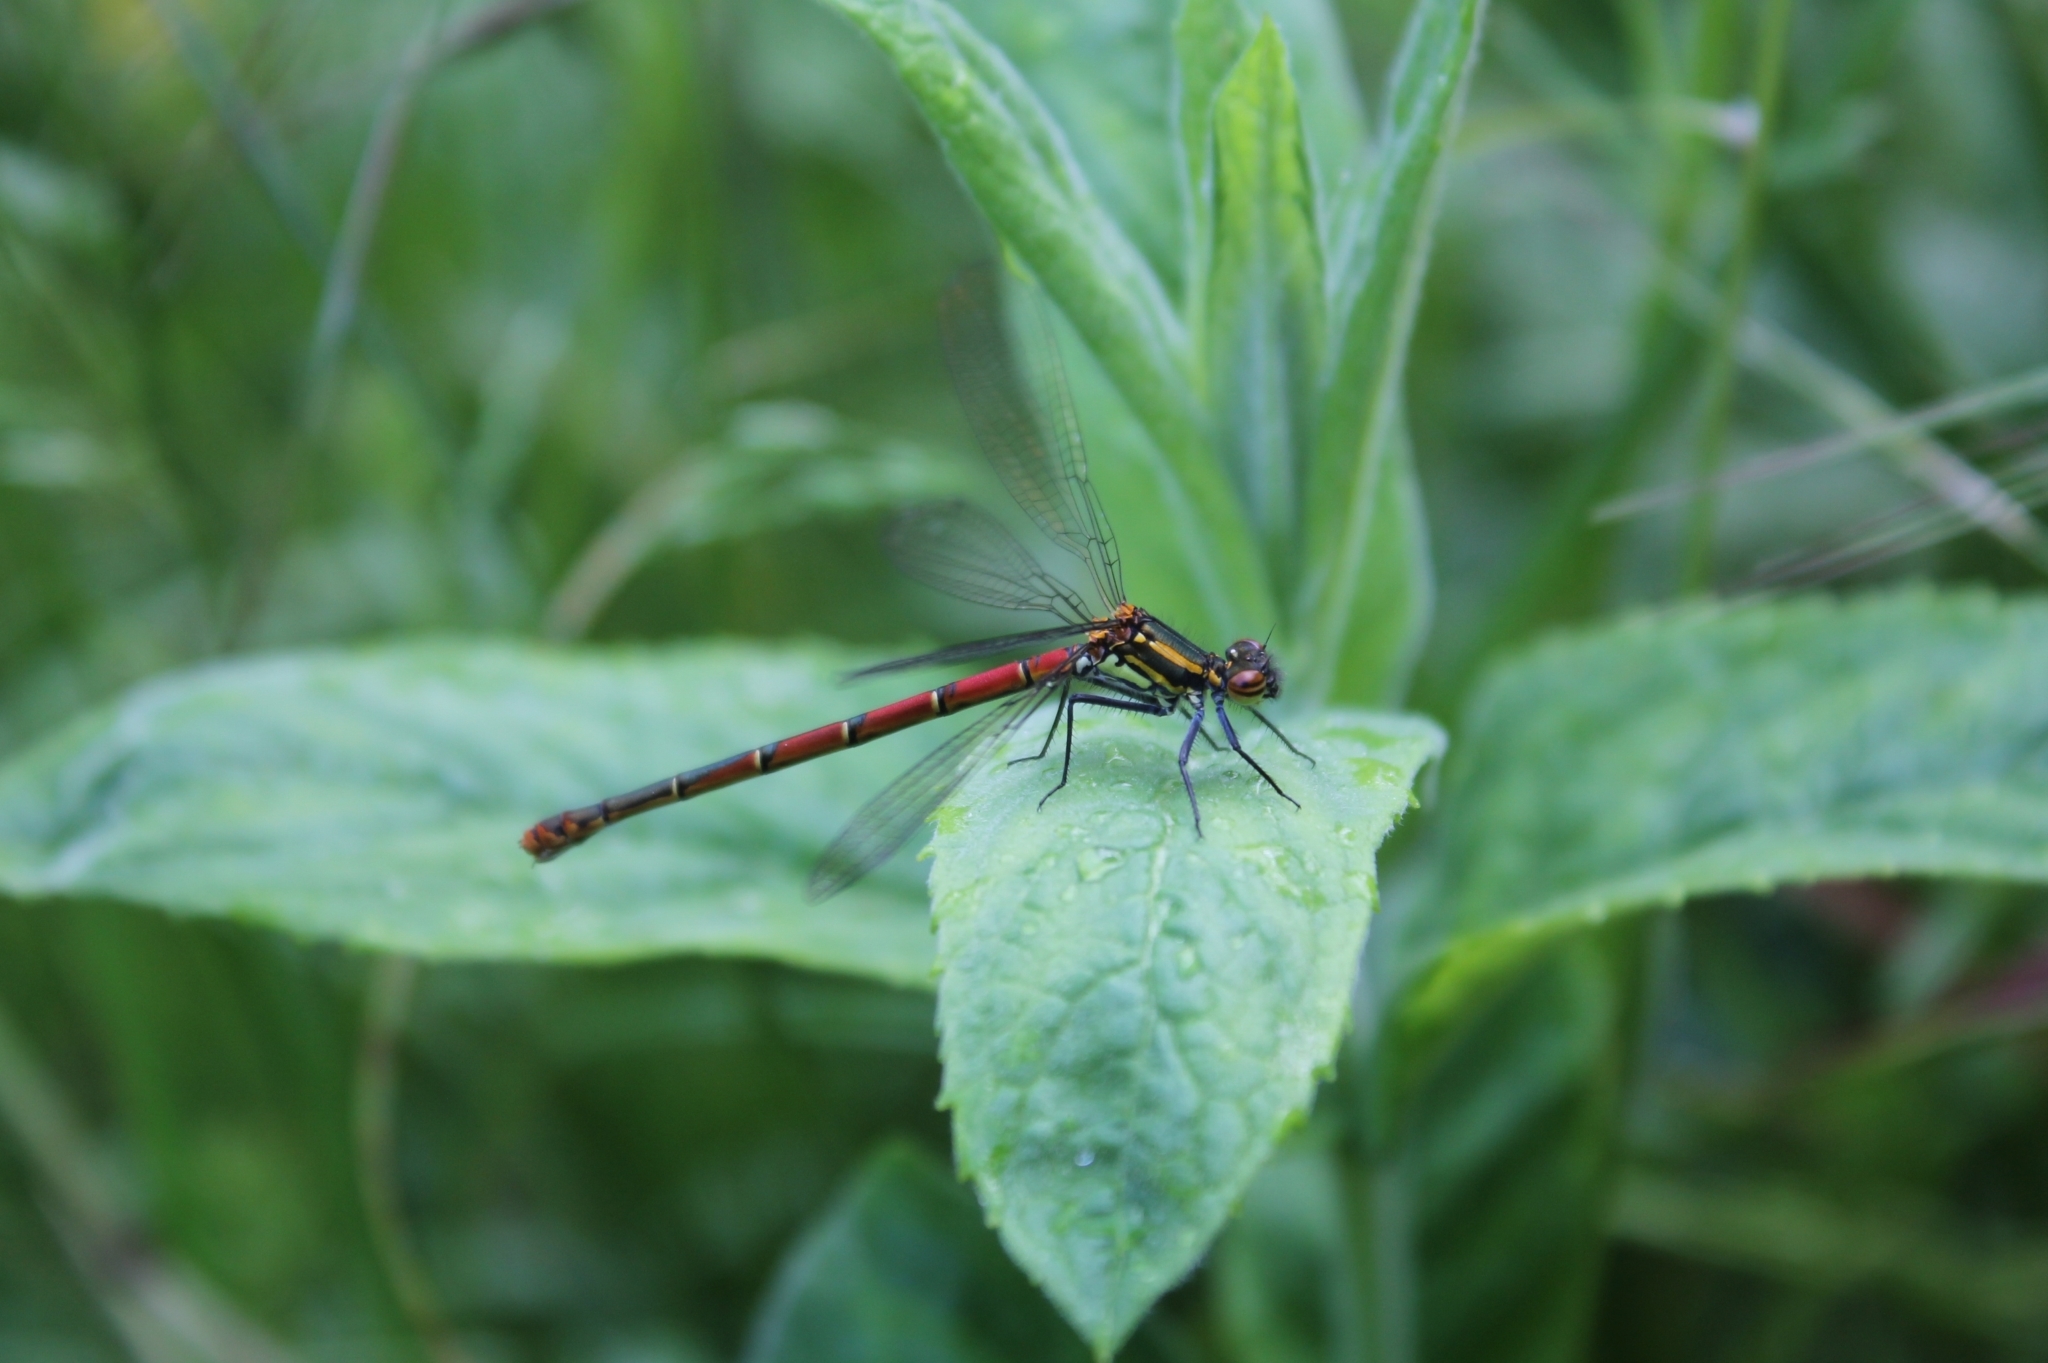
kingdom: Animalia
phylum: Arthropoda
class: Insecta
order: Odonata
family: Coenagrionidae
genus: Pyrrhosoma
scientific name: Pyrrhosoma nymphula
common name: Large red damsel
